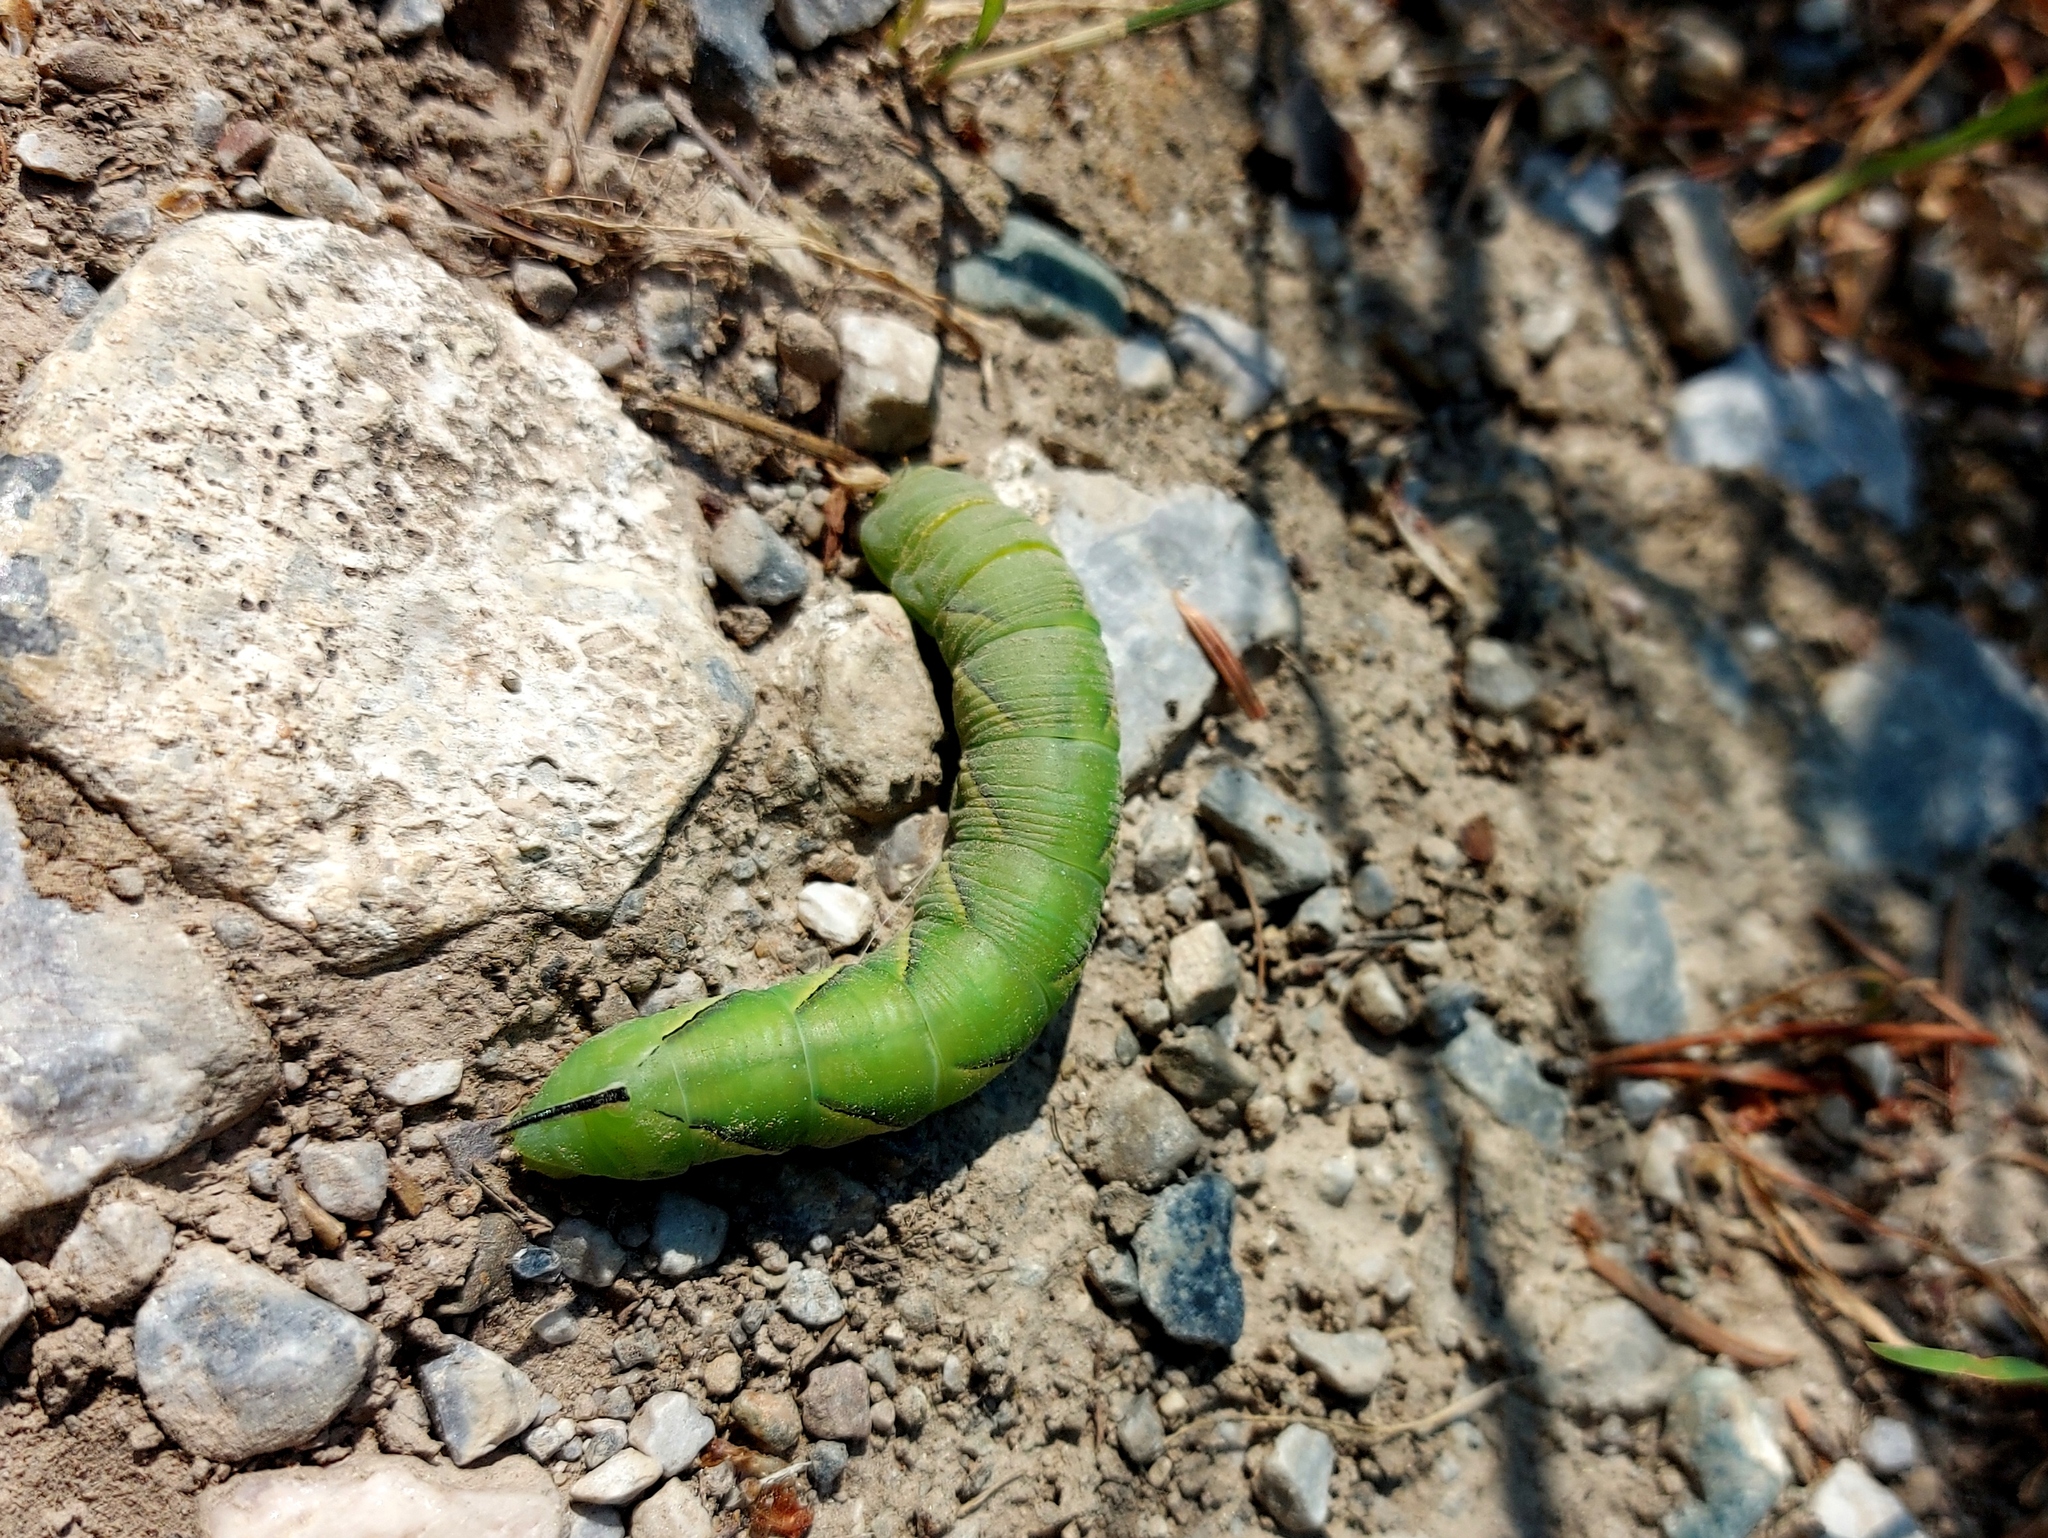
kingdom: Animalia
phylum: Arthropoda
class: Insecta
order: Lepidoptera
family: Sphingidae
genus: Sphinx
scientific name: Sphinx vashti
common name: Snowberry sphinx
